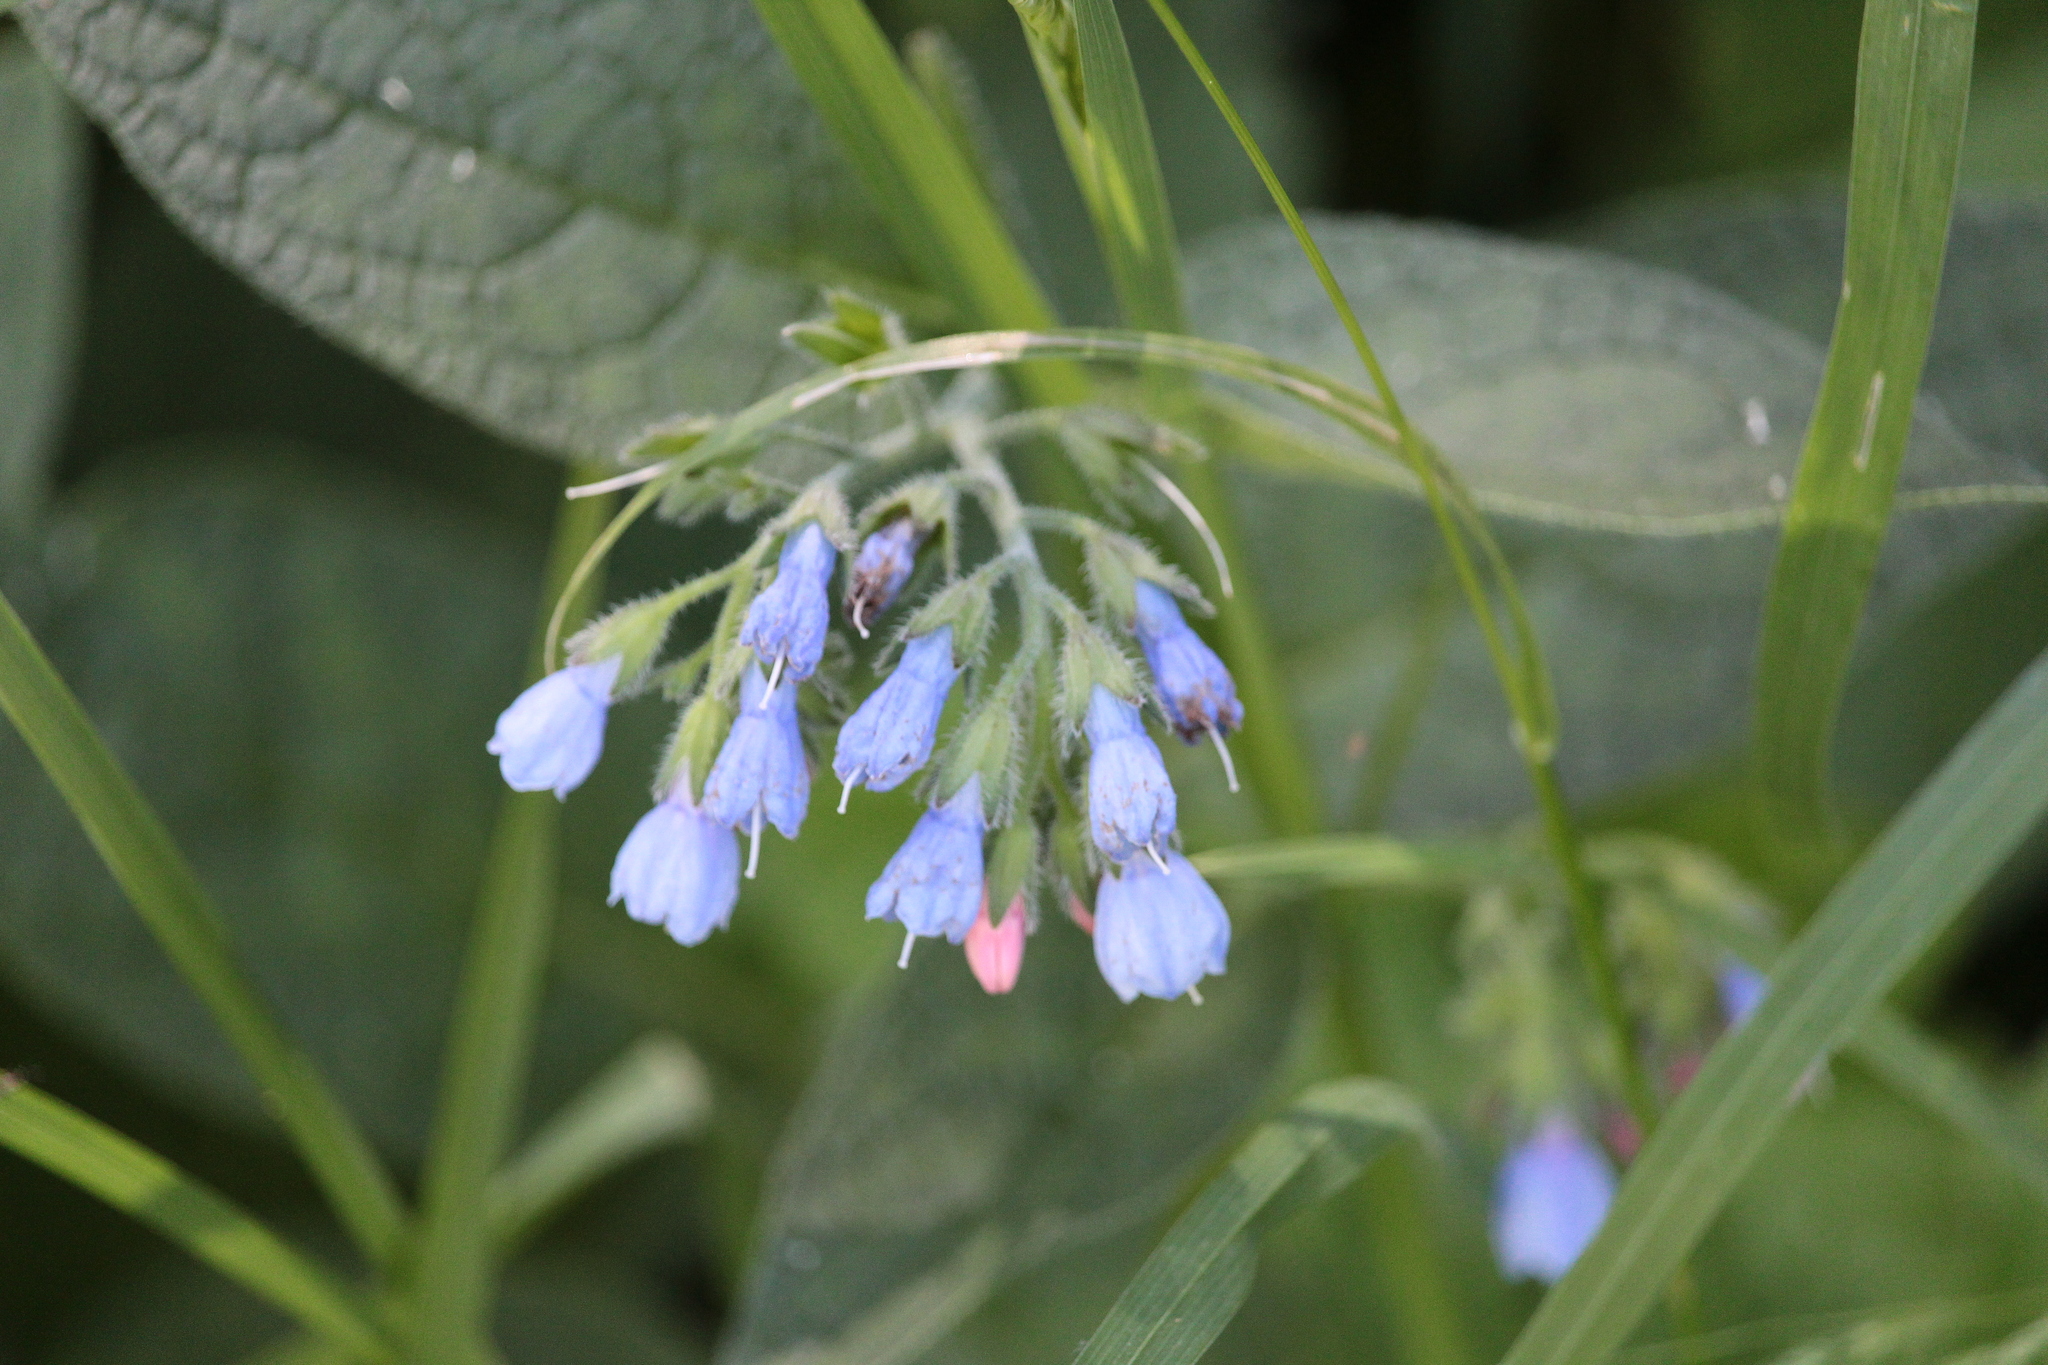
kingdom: Plantae
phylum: Tracheophyta
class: Magnoliopsida
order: Boraginales
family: Boraginaceae
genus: Symphytum
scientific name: Symphytum caucasicum
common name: Caucasian comfrey
